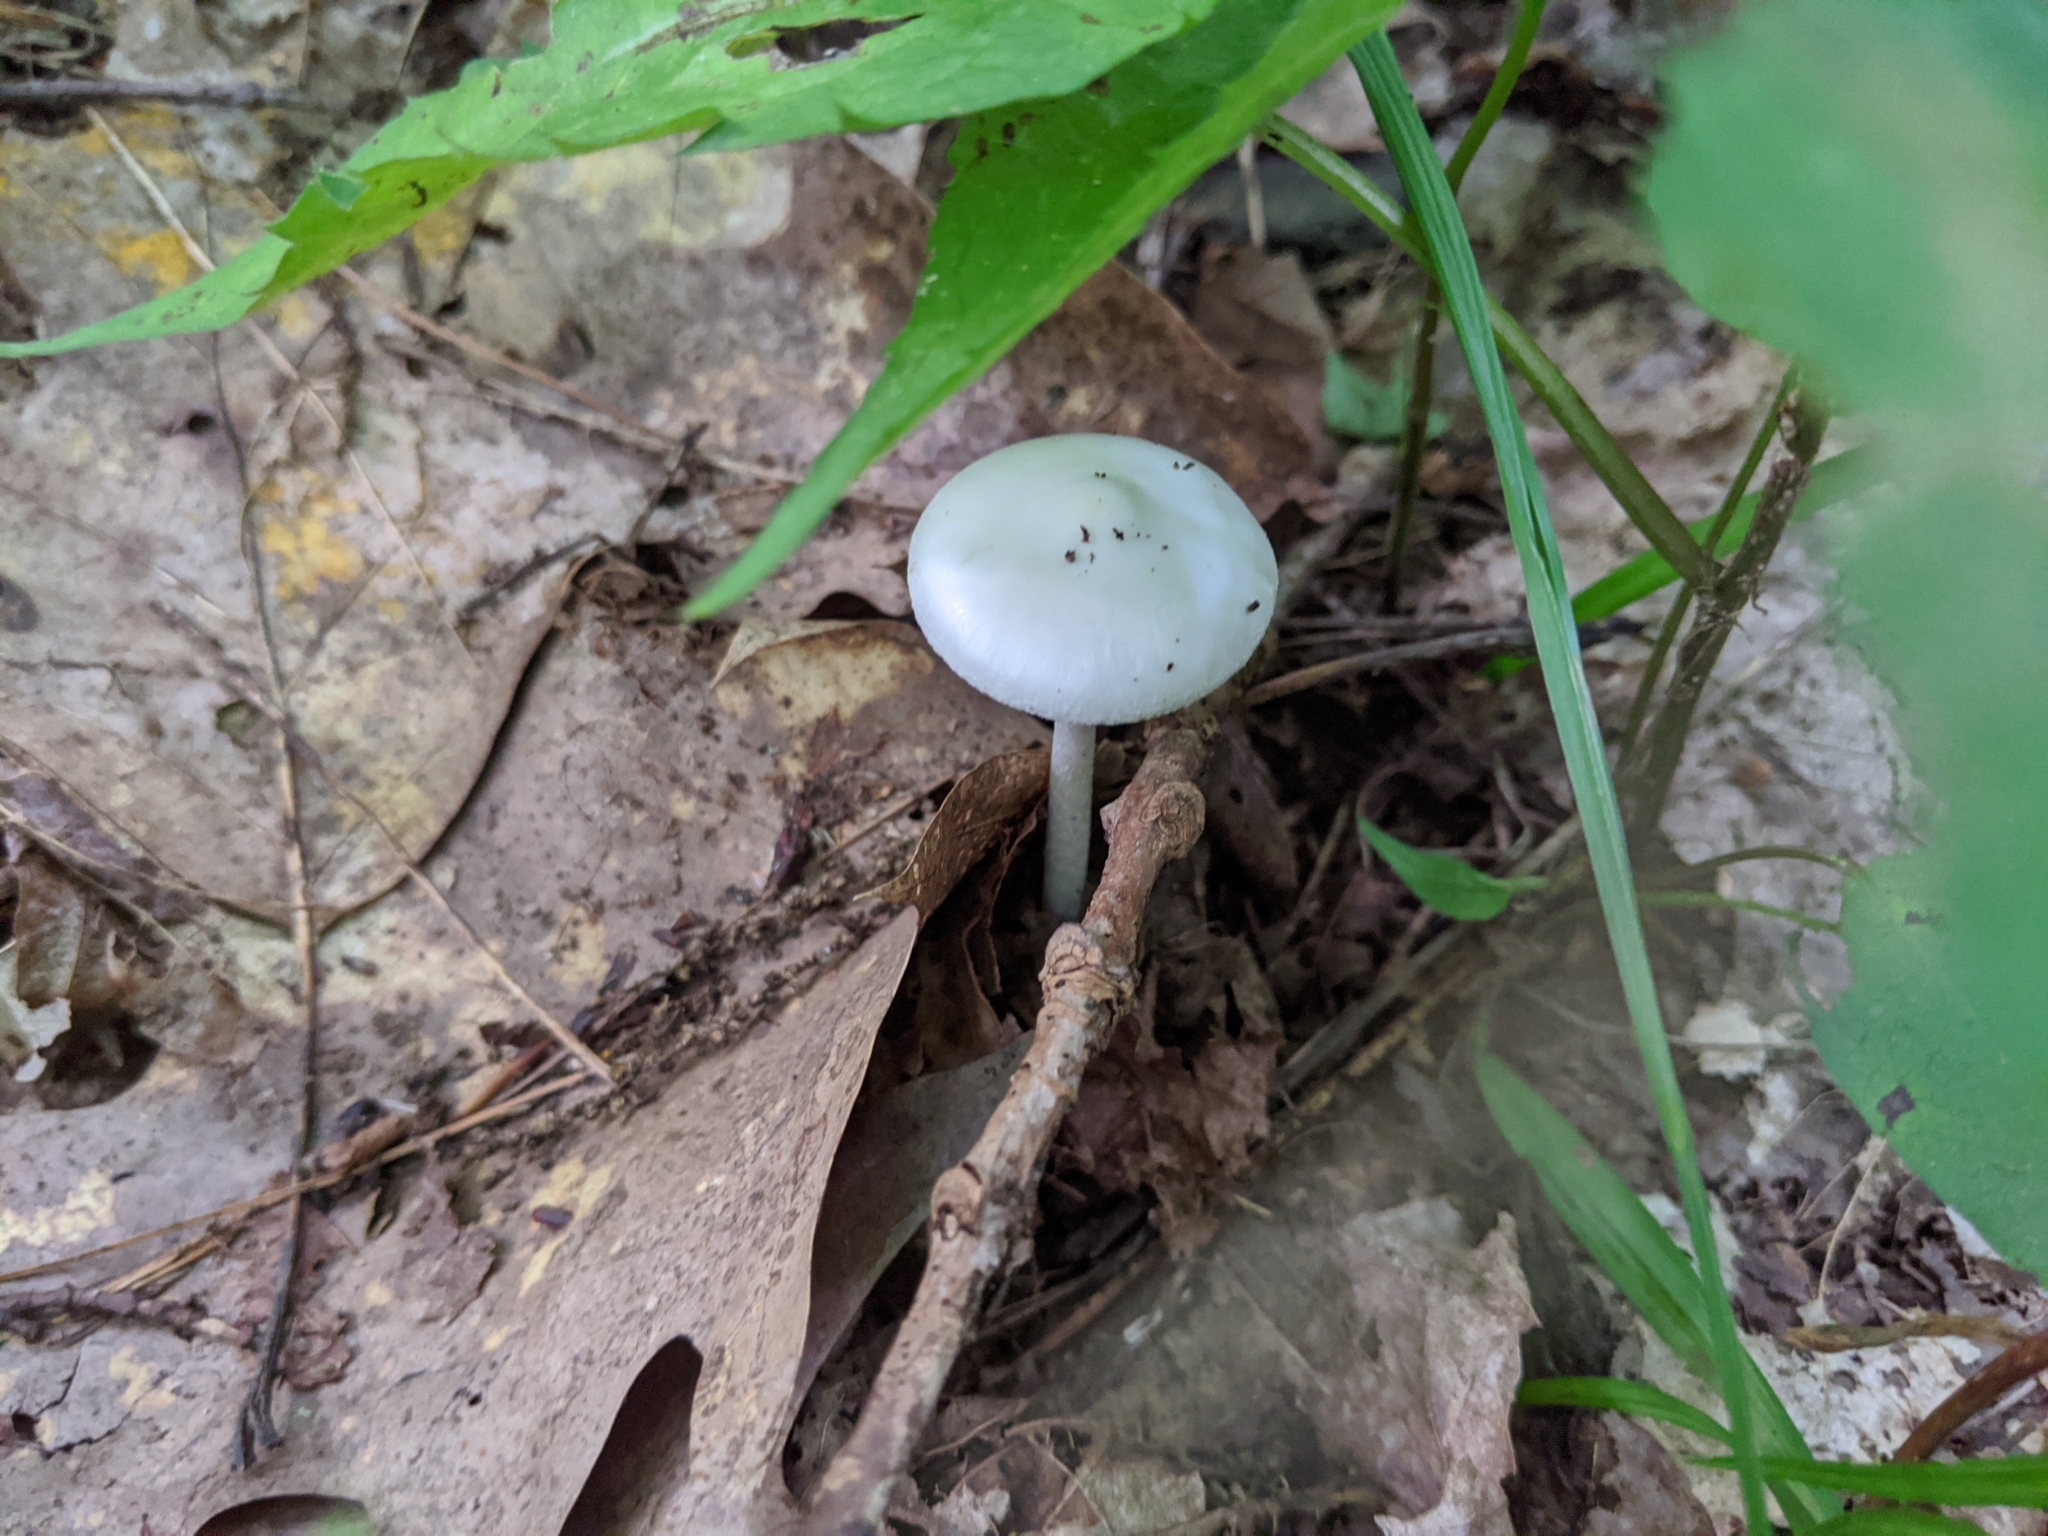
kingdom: Fungi
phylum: Basidiomycota
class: Agaricomycetes
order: Agaricales
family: Amanitaceae
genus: Amanita
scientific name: Amanita bisporigera
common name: Eastern north american destroying angel
